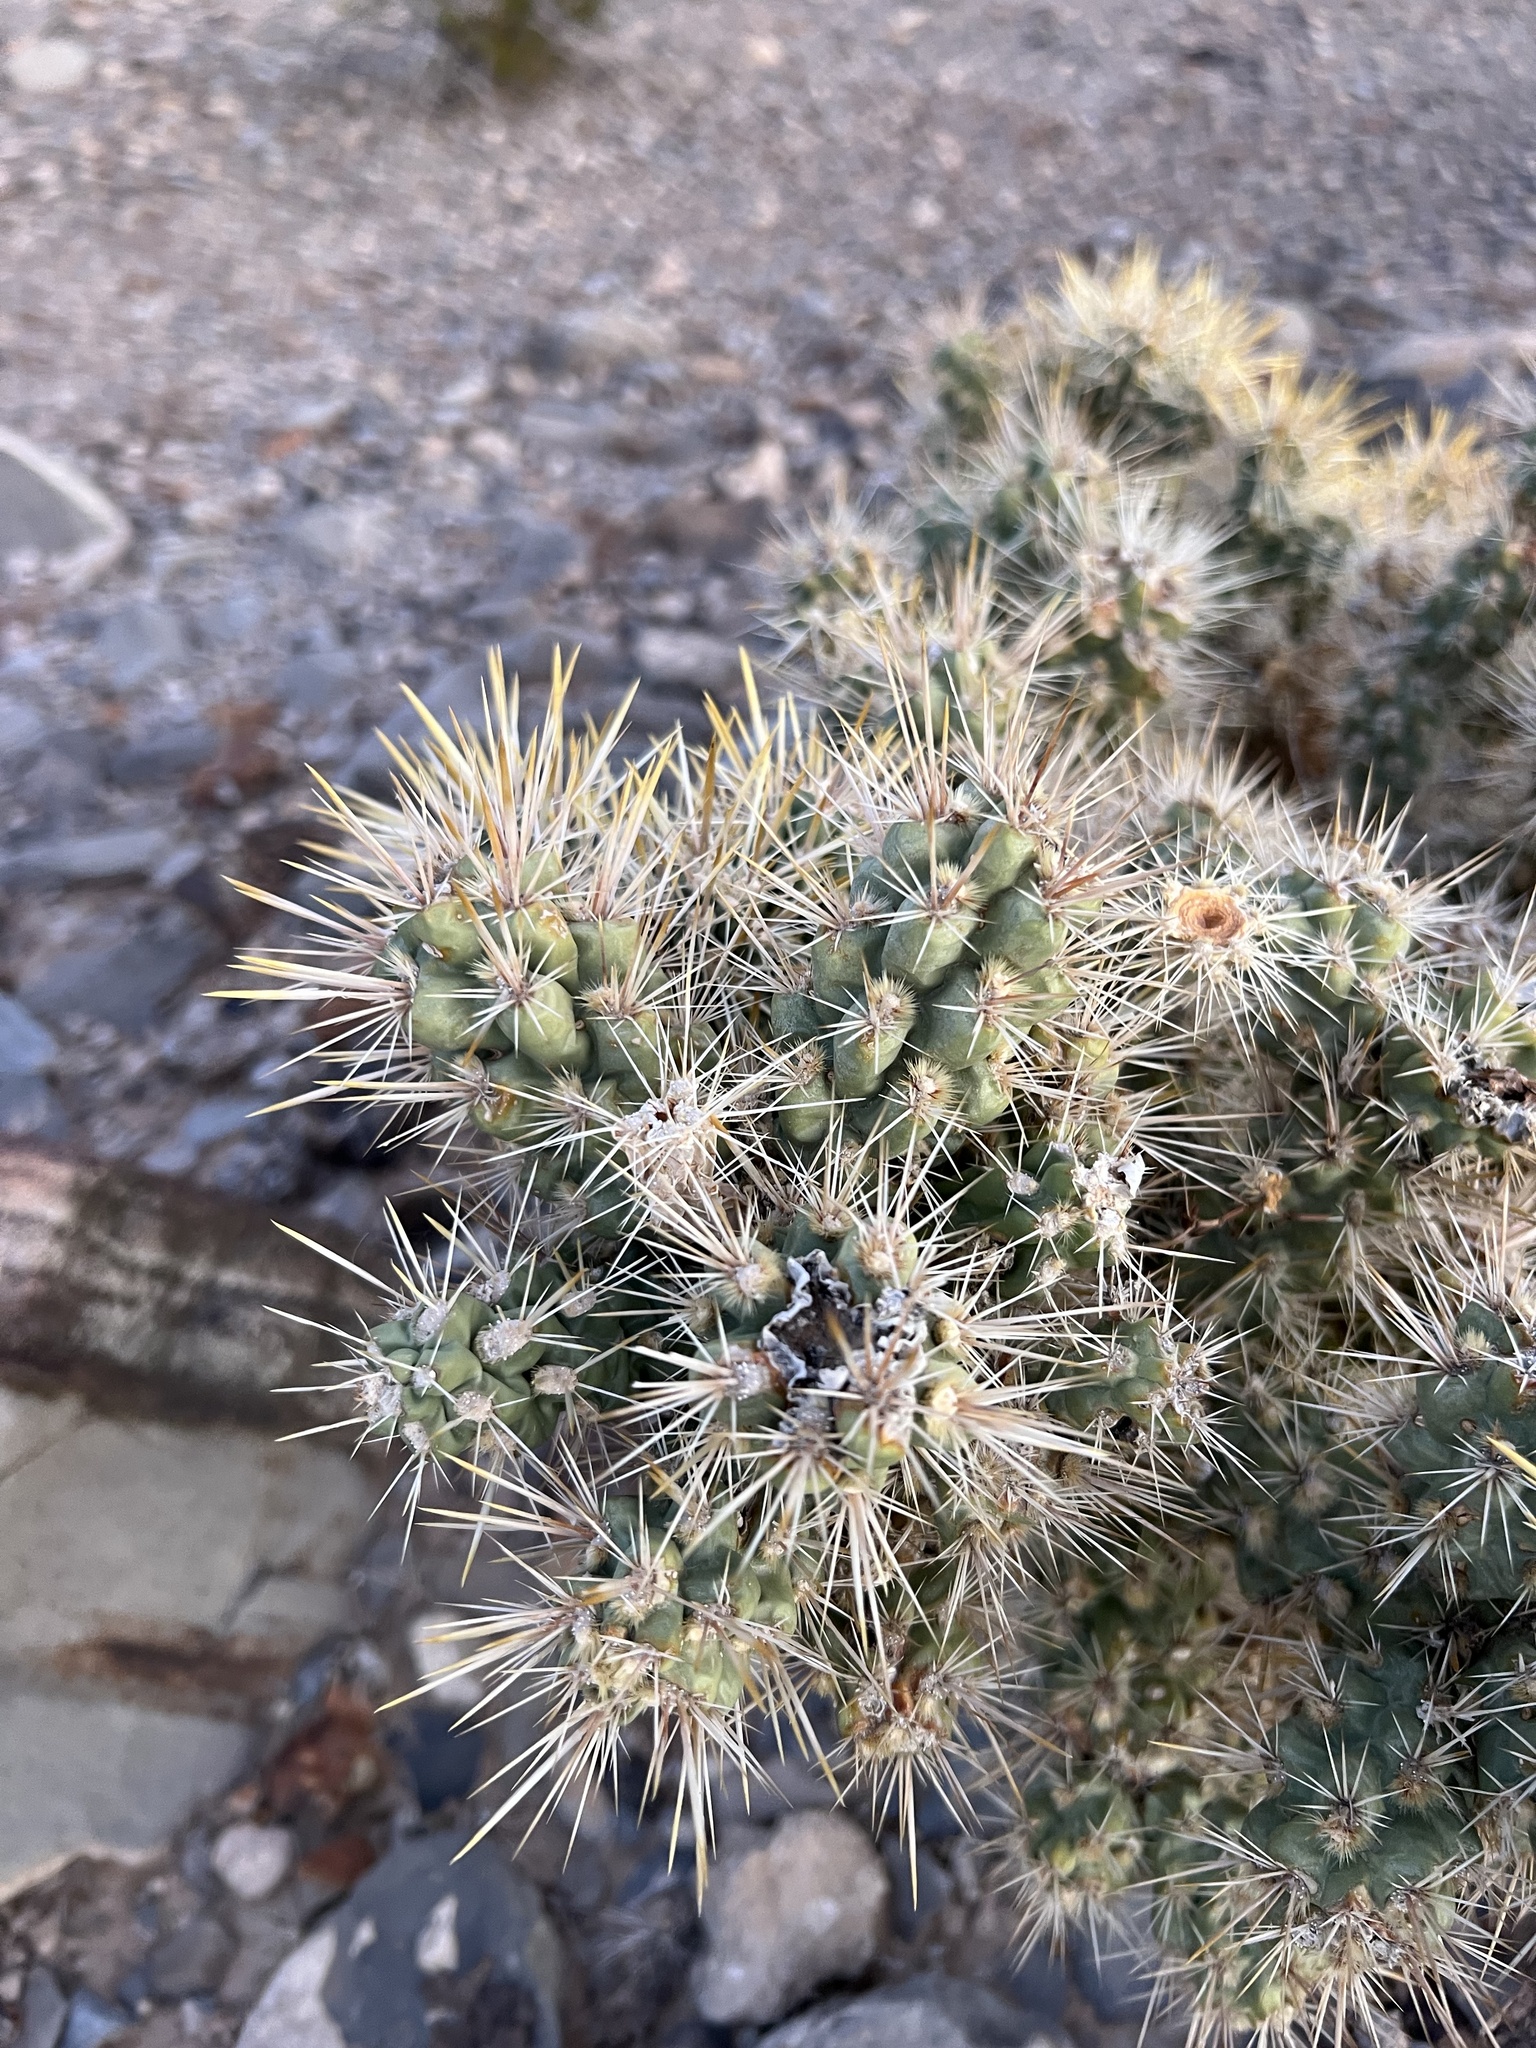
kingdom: Plantae
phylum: Tracheophyta
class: Magnoliopsida
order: Caryophyllales
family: Cactaceae
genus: Cylindropuntia
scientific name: Cylindropuntia echinocarpa
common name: Ground cholla
